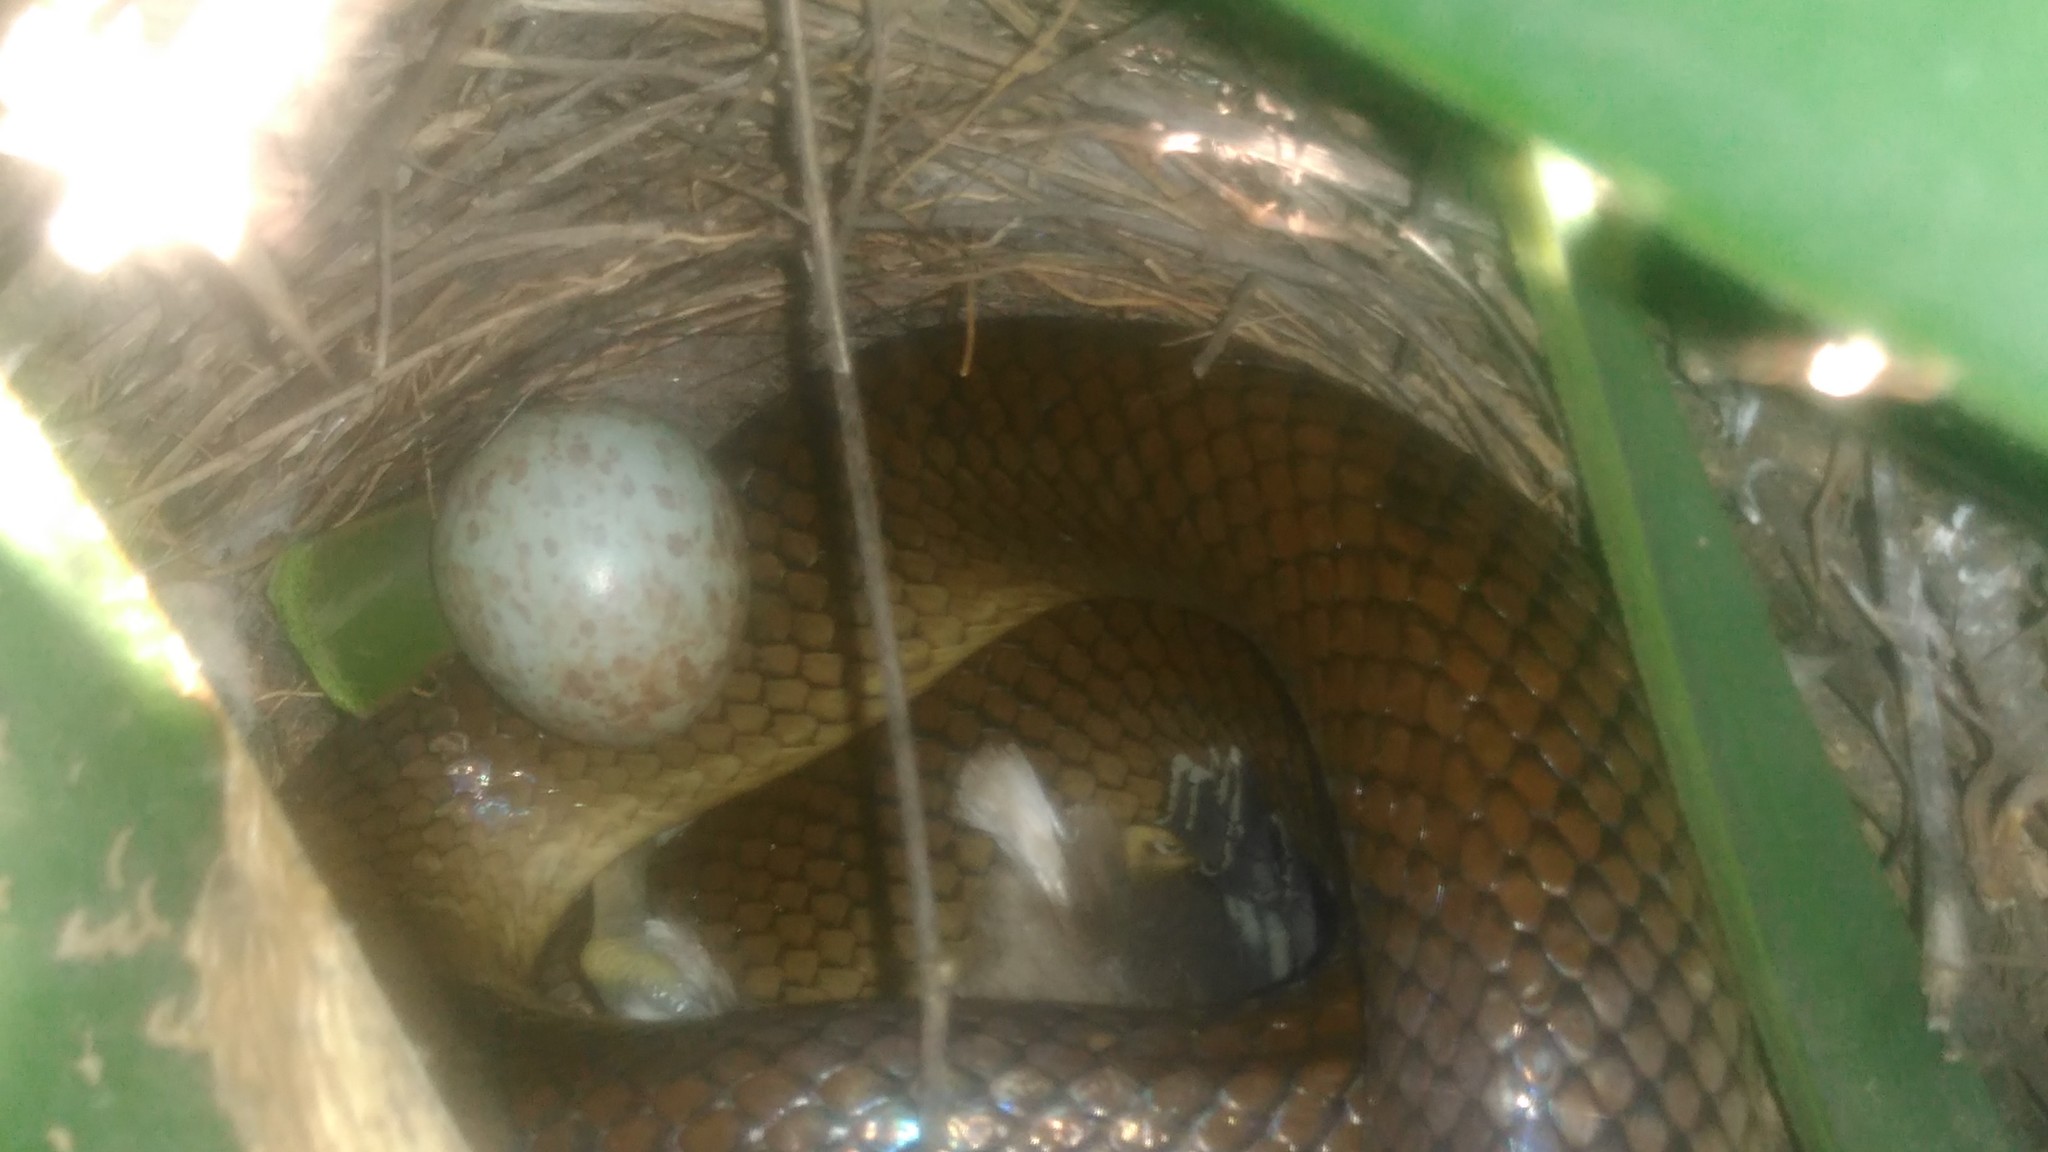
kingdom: Animalia
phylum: Chordata
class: Aves
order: Passeriformes
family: Icteridae
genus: Molothrus
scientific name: Molothrus bonariensis
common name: Shiny cowbird
